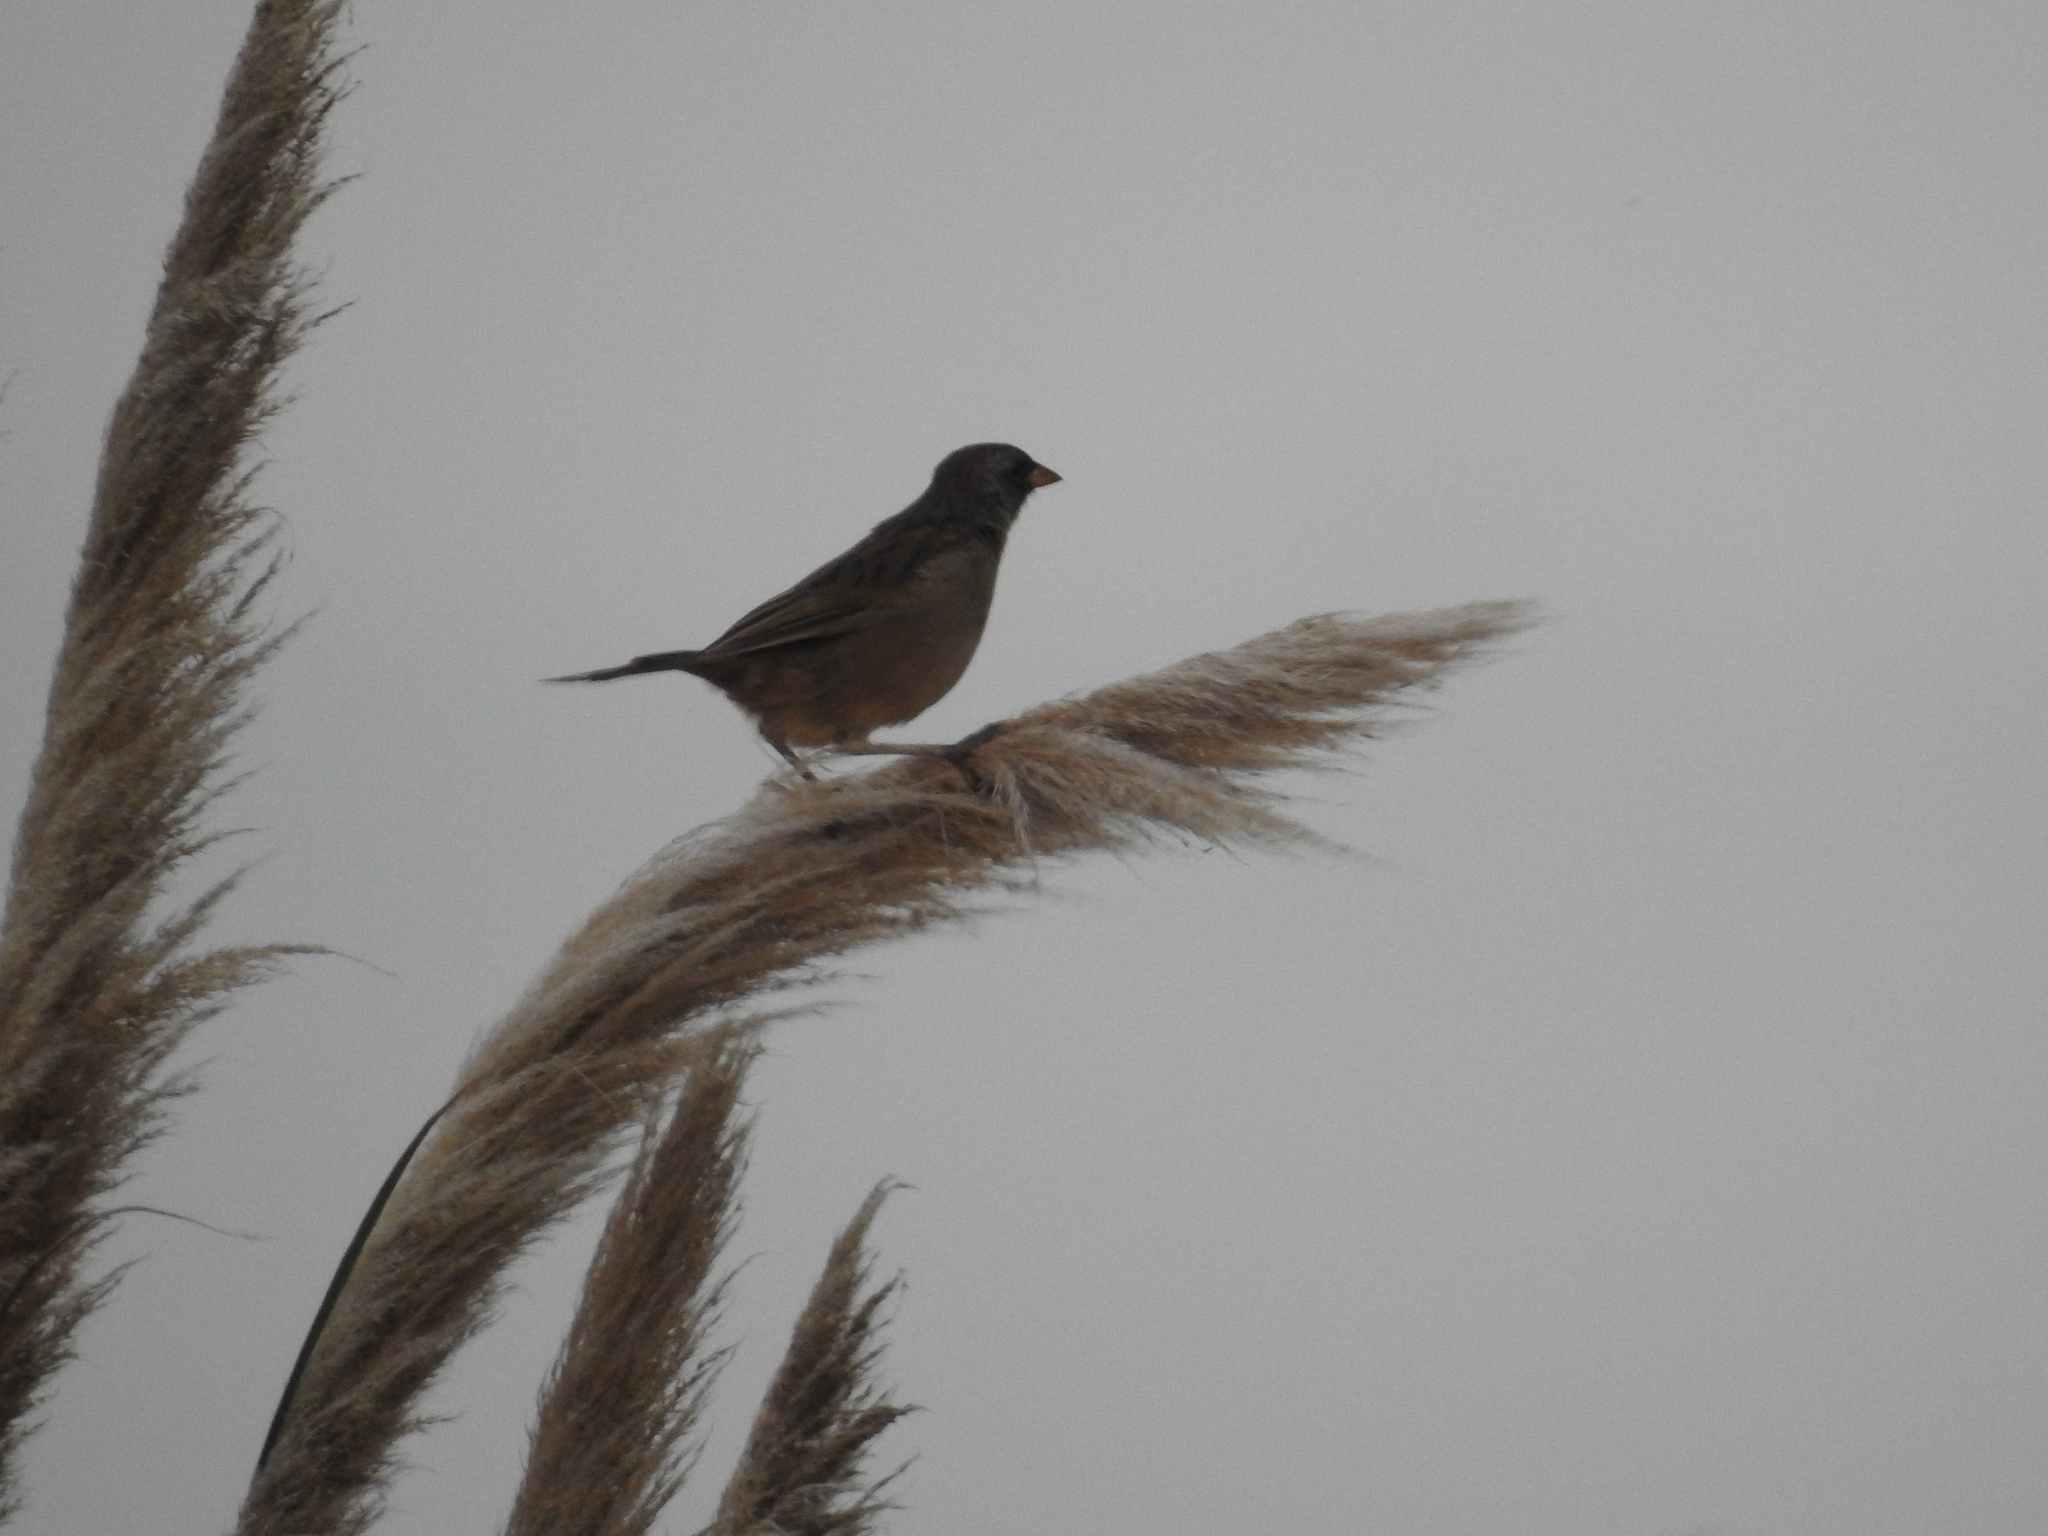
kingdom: Animalia
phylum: Chordata
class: Aves
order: Passeriformes
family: Thraupidae
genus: Embernagra
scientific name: Embernagra platensis
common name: Pampa finch
